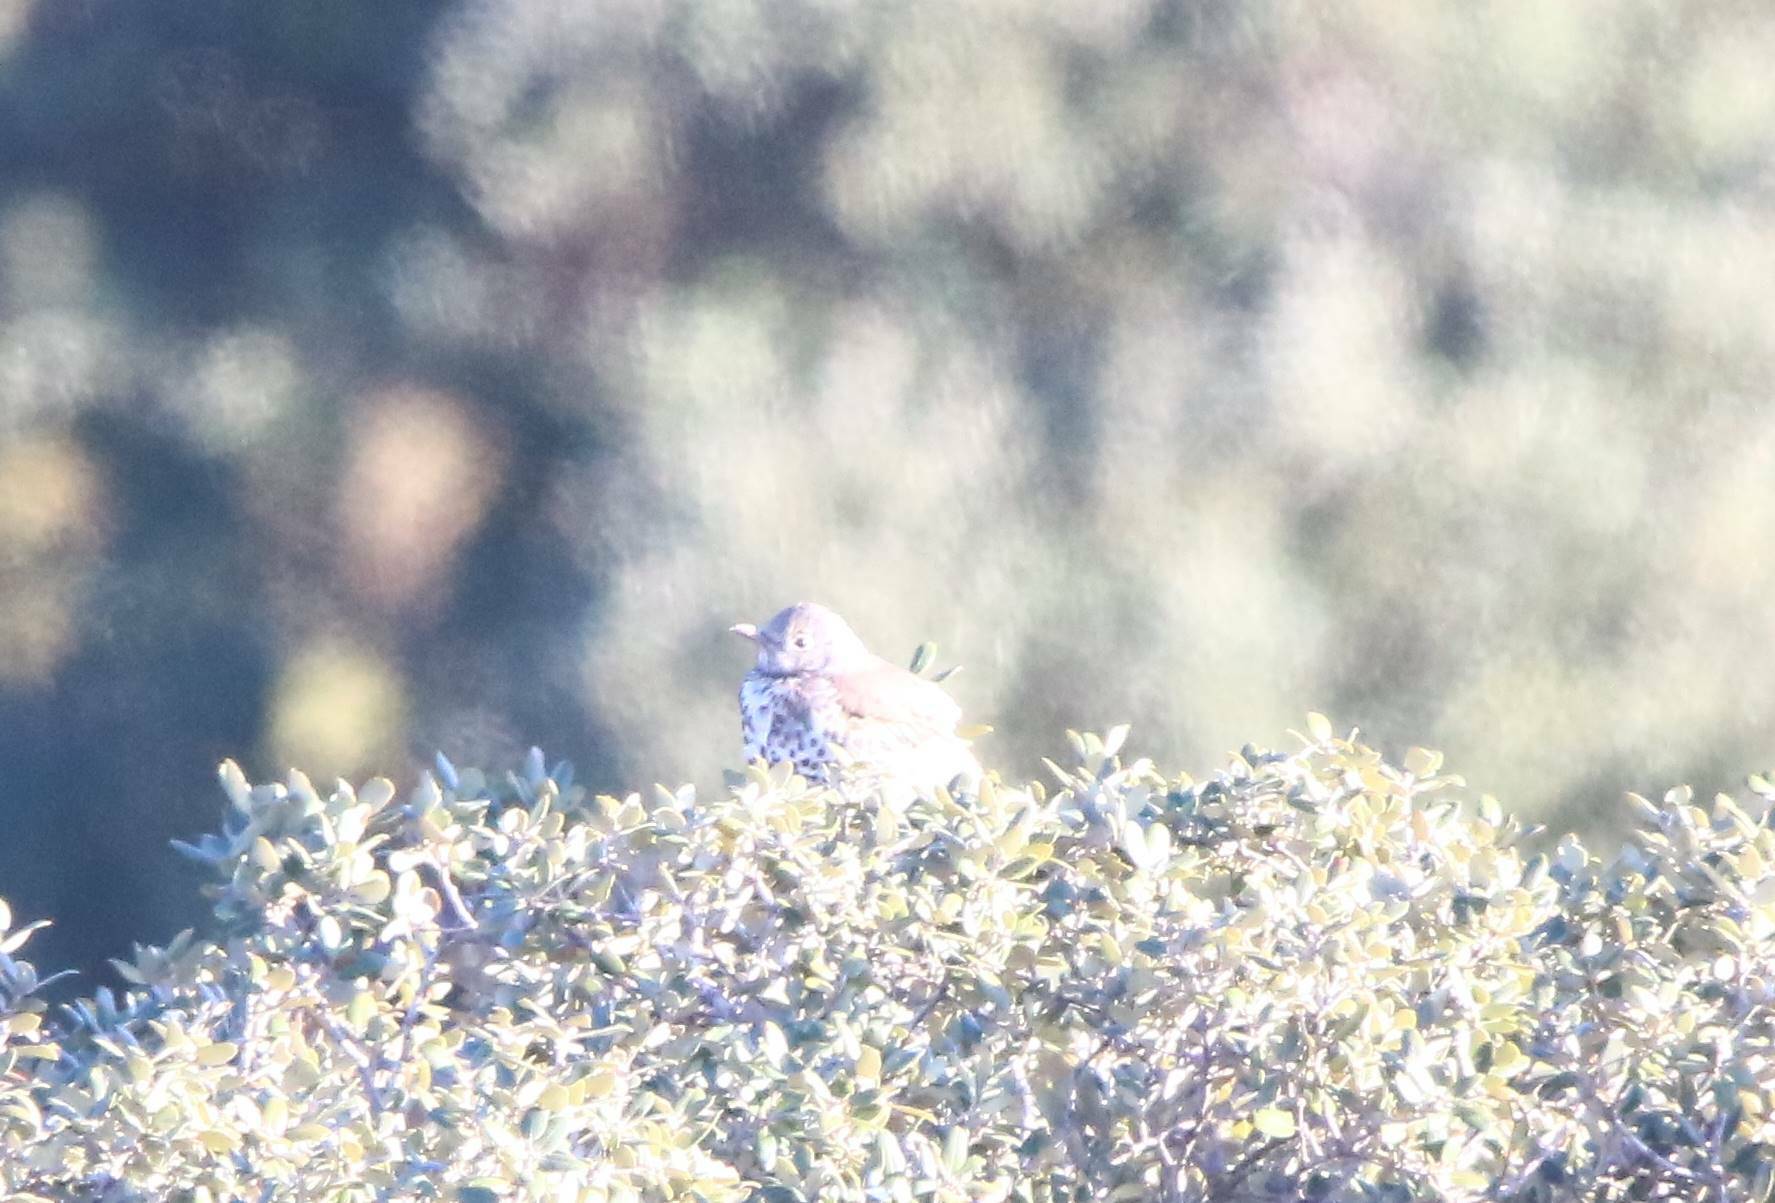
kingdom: Animalia
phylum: Chordata
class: Aves
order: Passeriformes
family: Turdidae
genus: Turdus
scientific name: Turdus viscivorus
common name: Mistle thrush
